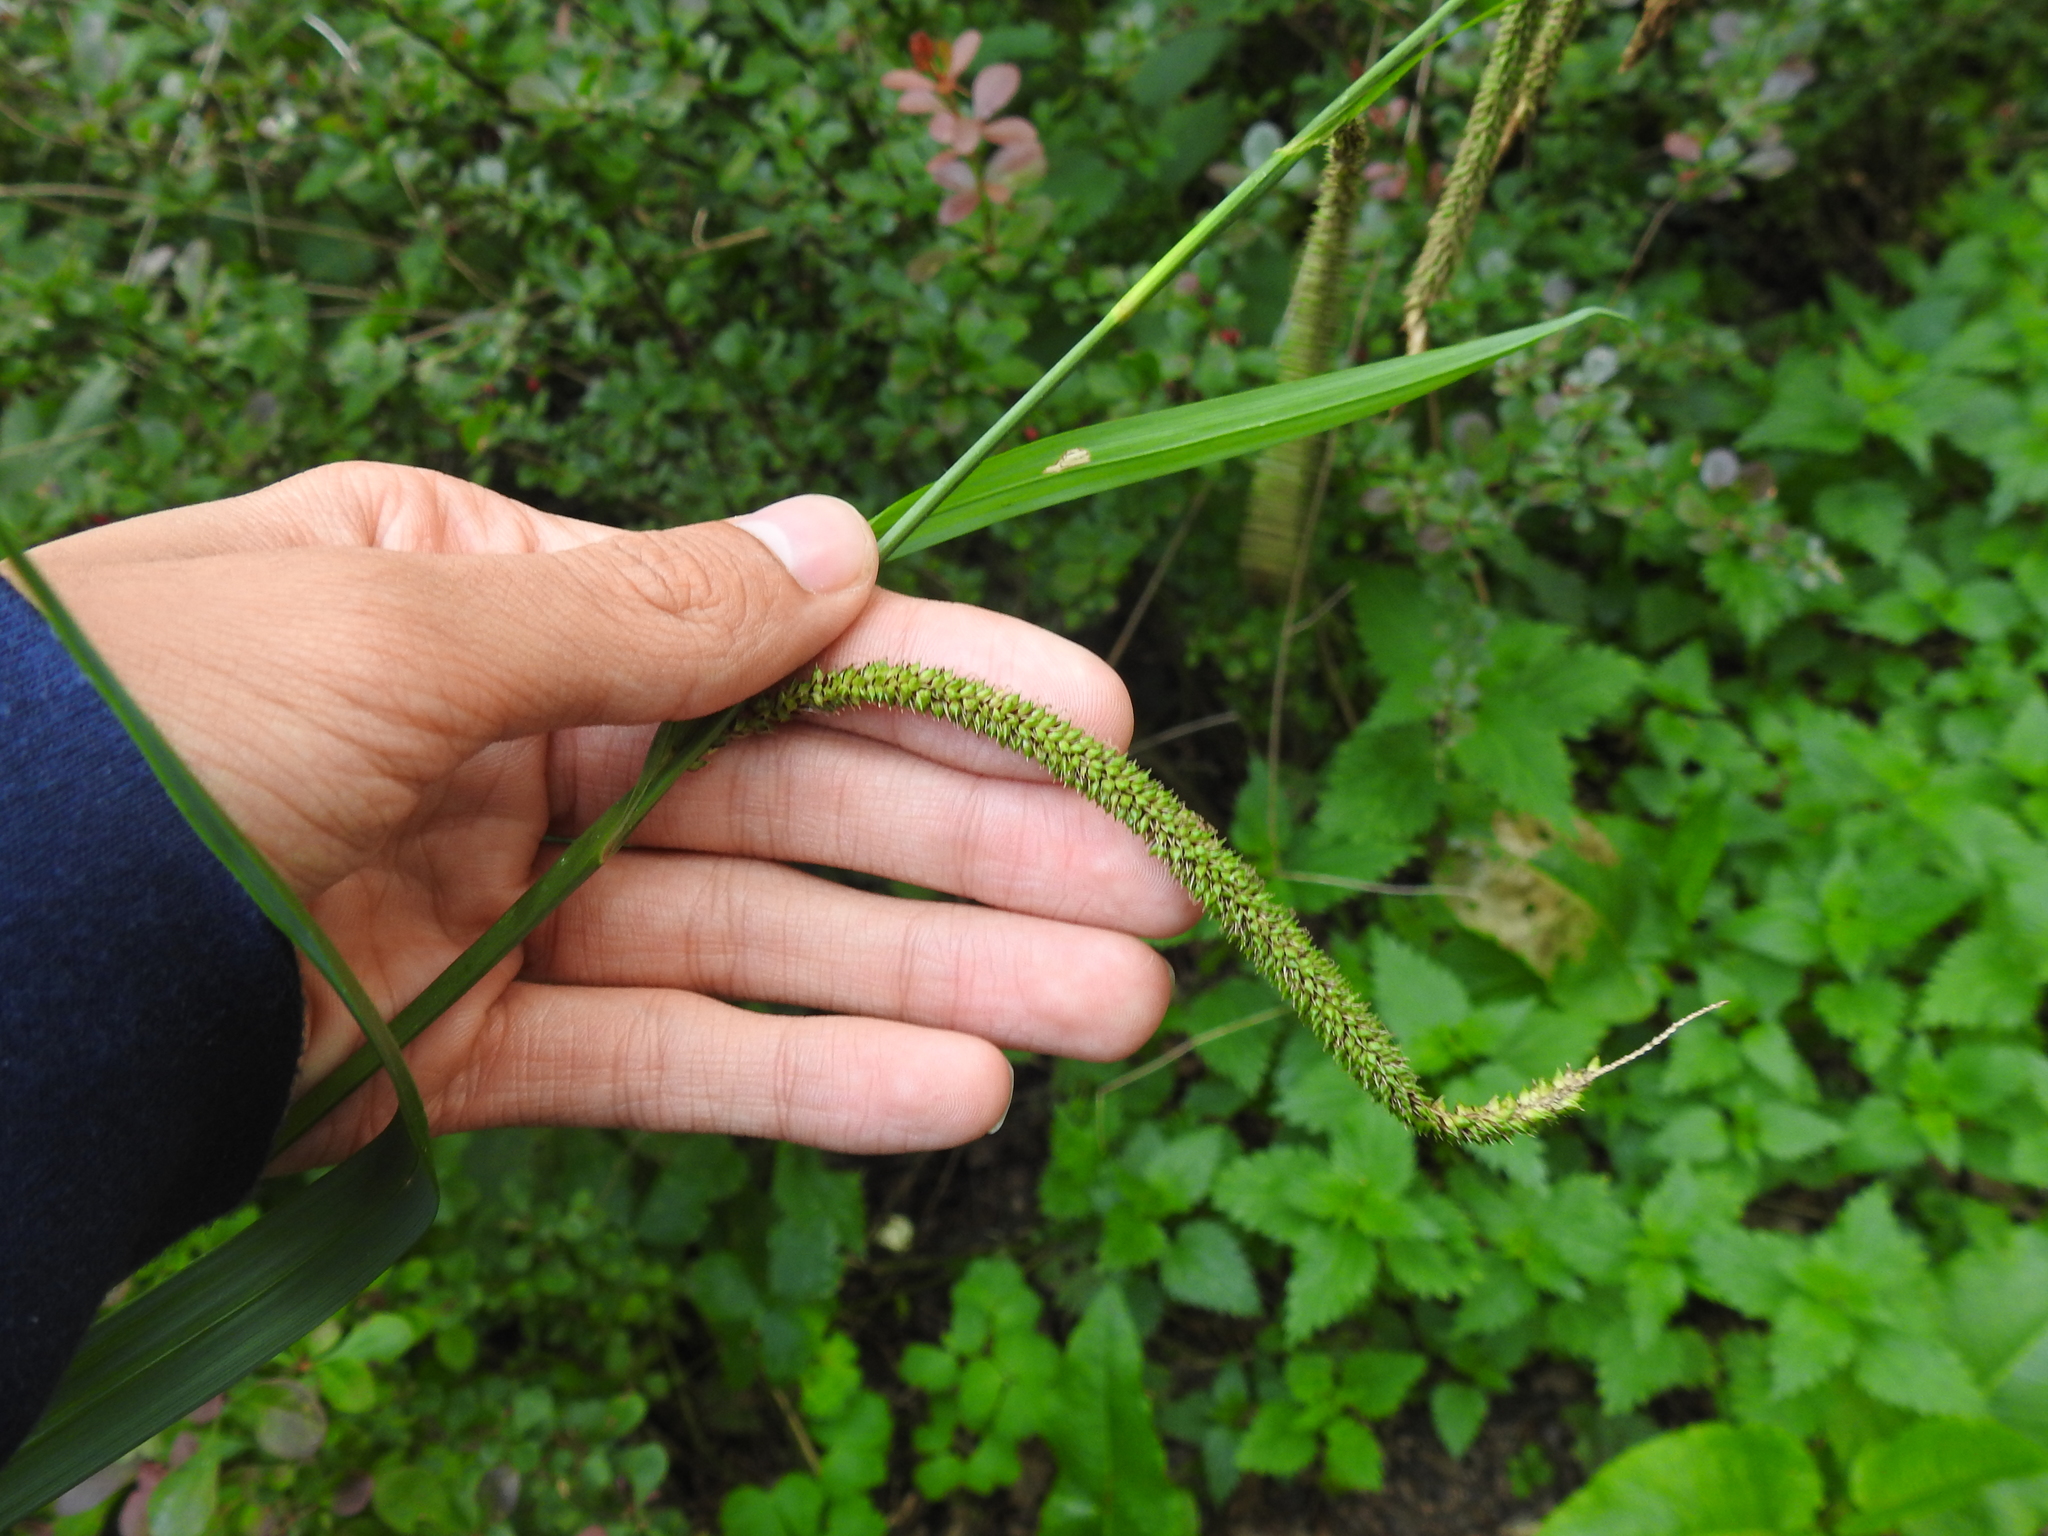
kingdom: Plantae
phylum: Tracheophyta
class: Liliopsida
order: Poales
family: Cyperaceae
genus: Carex
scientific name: Carex pendula
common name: Pendulous sedge
